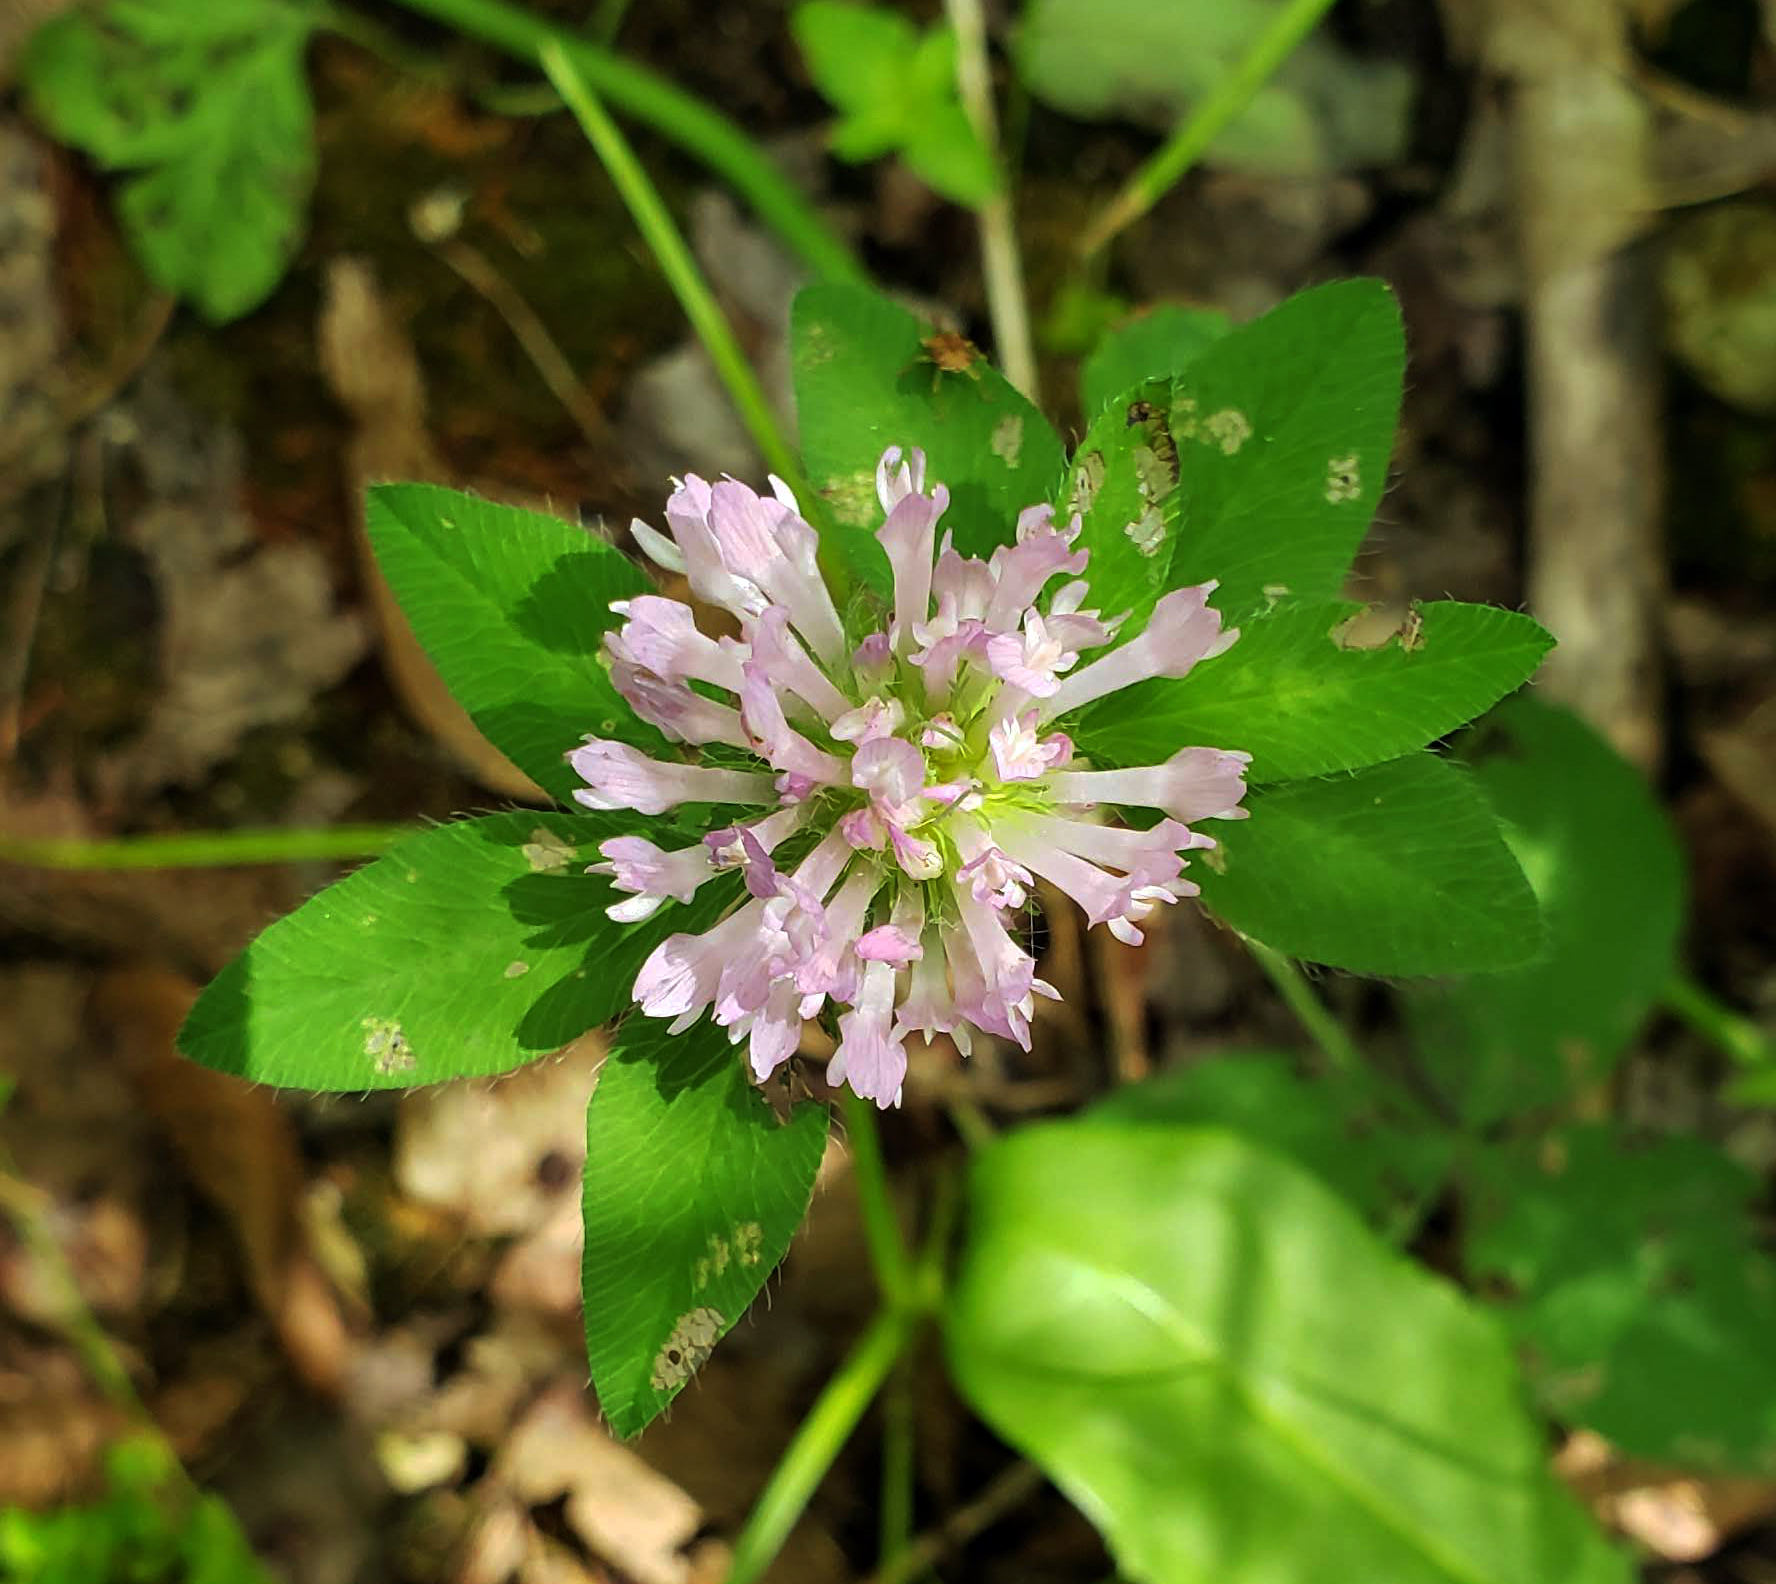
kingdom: Plantae
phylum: Tracheophyta
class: Magnoliopsida
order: Fabales
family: Fabaceae
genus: Trifolium
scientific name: Trifolium pratense
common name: Red clover
